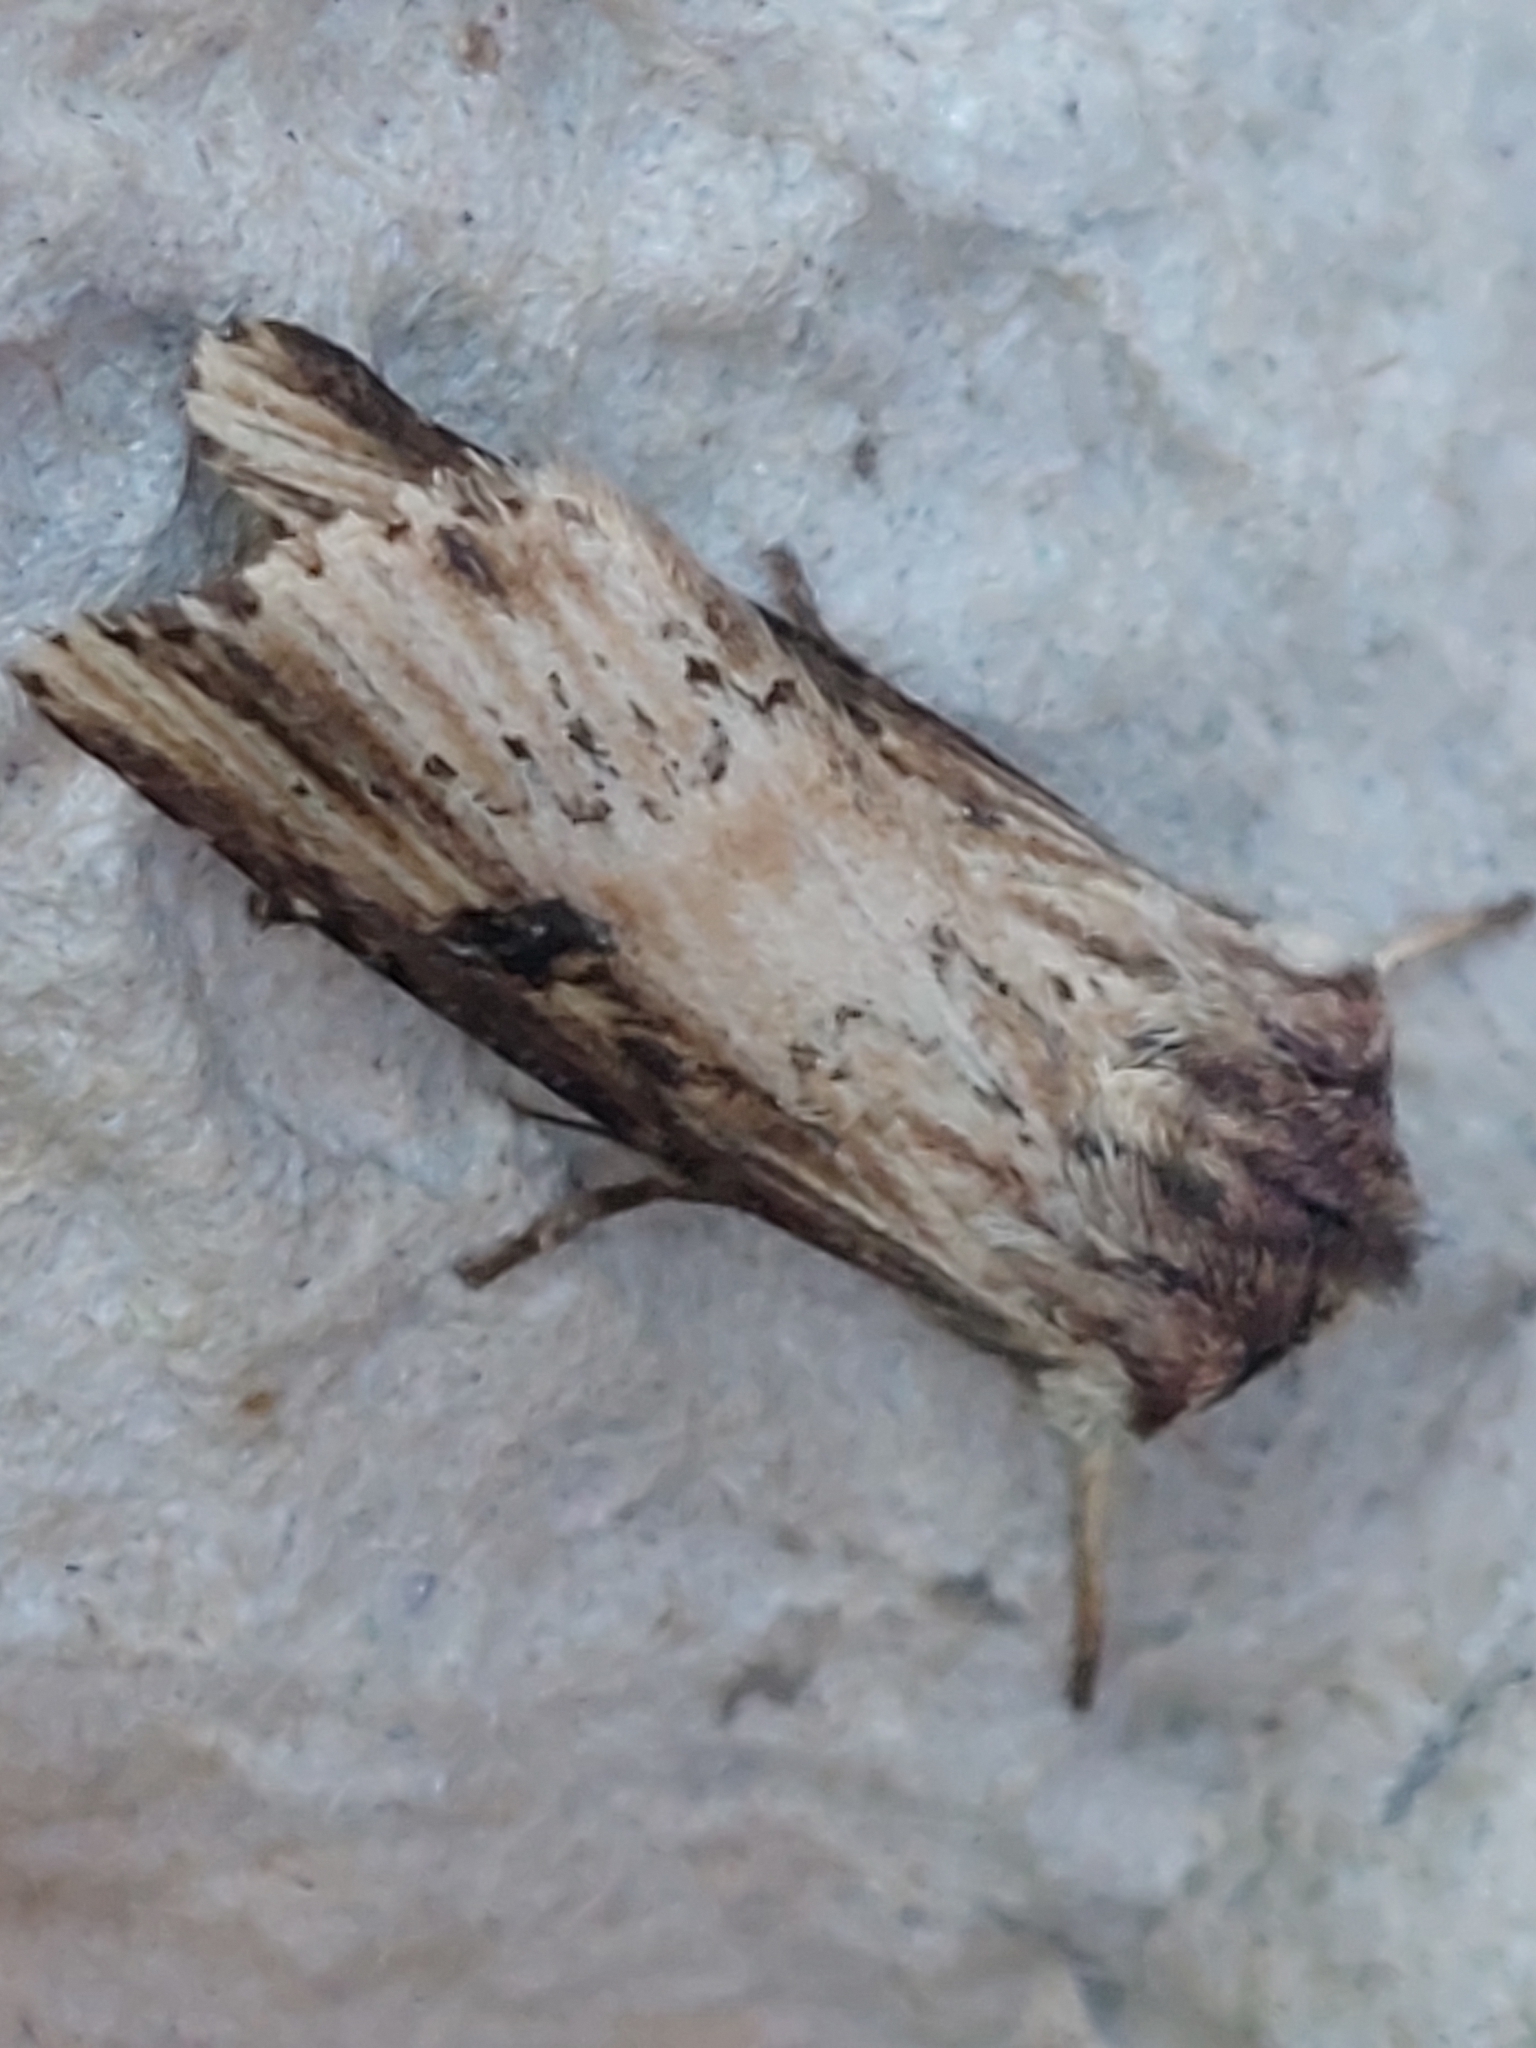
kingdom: Animalia
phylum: Arthropoda
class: Insecta
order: Lepidoptera
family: Noctuidae
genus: Axylia
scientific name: Axylia putris
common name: Flame
